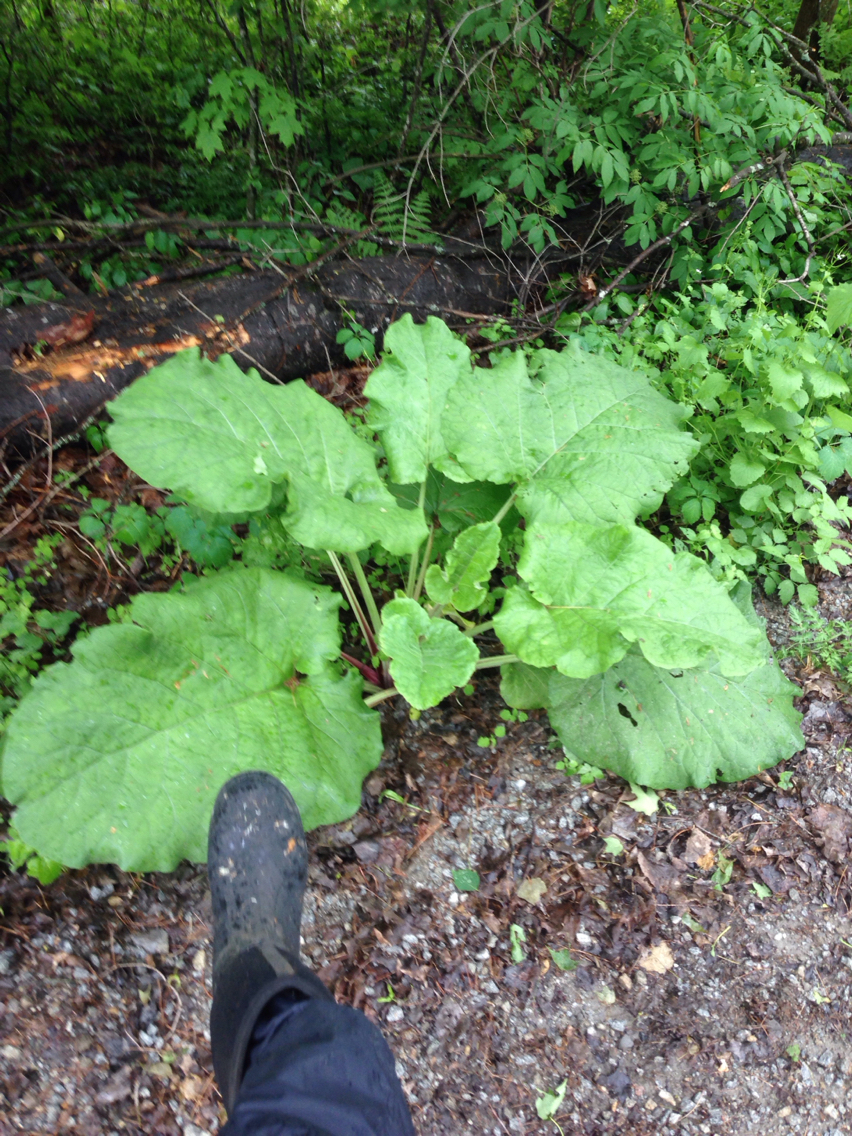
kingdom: Plantae
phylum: Tracheophyta
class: Magnoliopsida
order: Asterales
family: Asteraceae
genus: Arctium
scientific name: Arctium lappa
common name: Greater burdock
